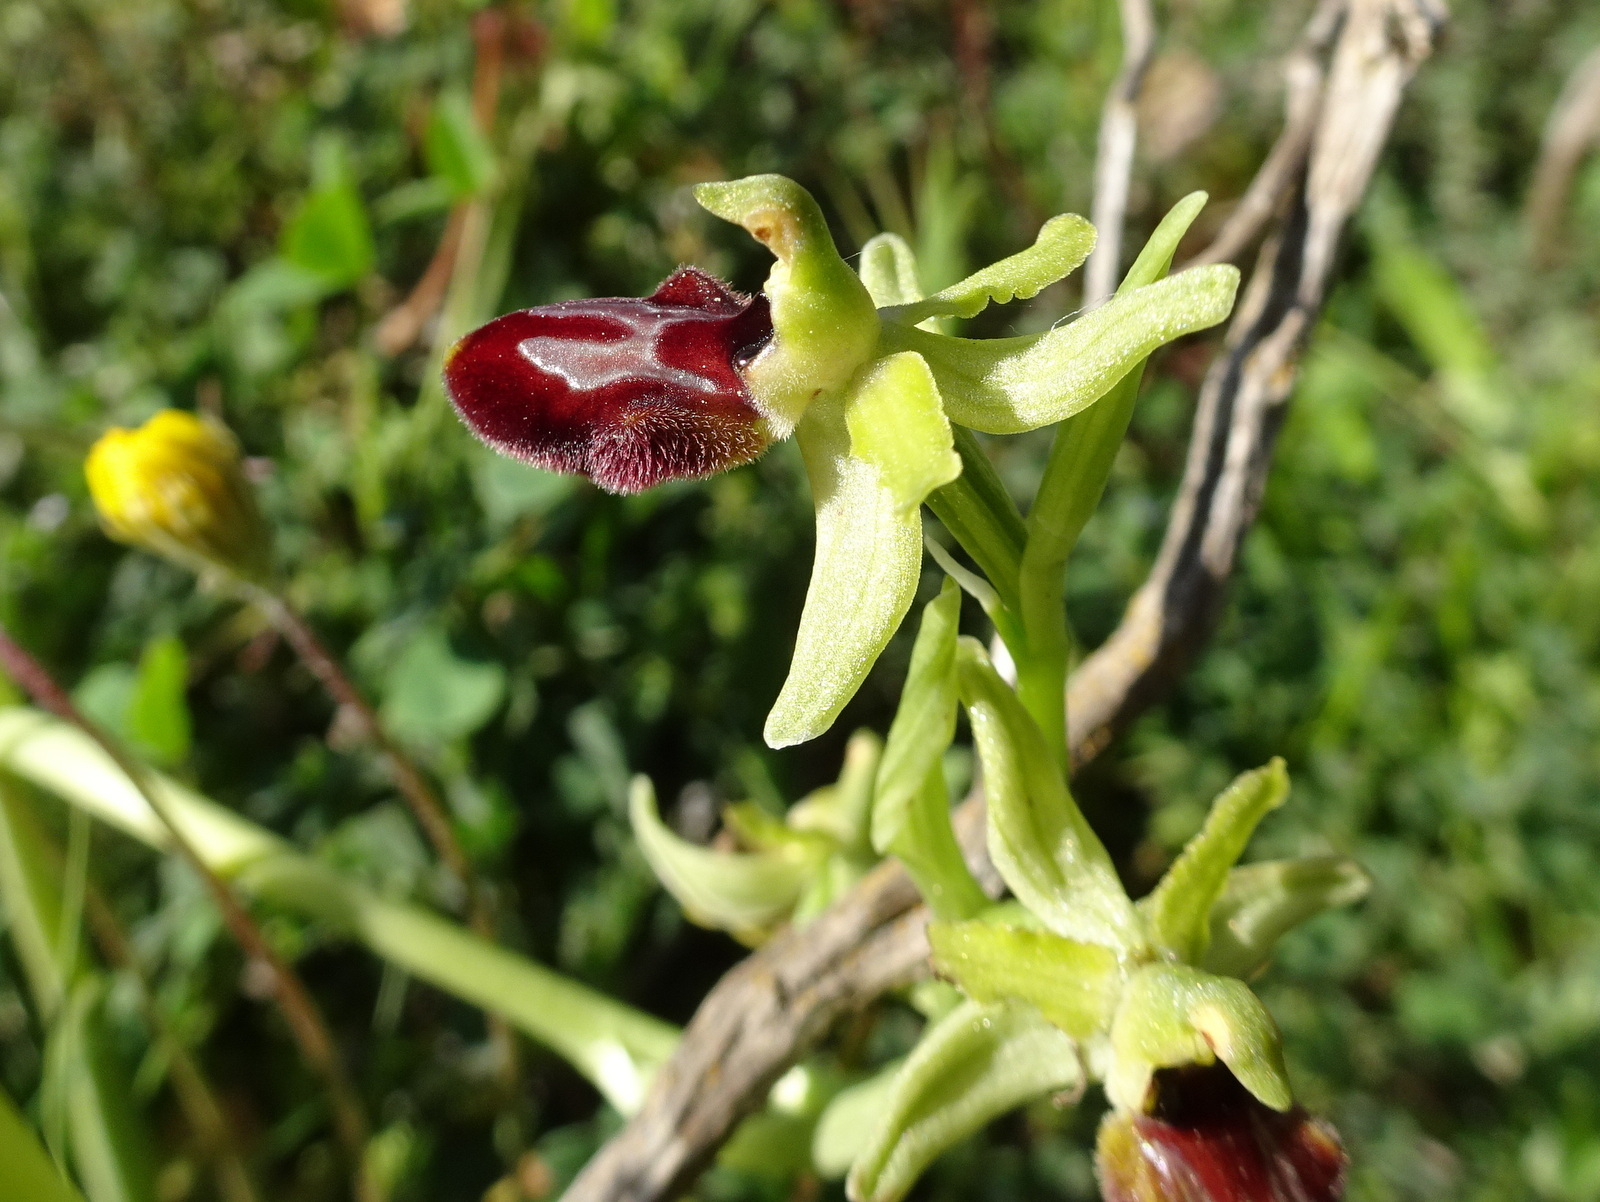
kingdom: Plantae
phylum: Tracheophyta
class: Liliopsida
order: Asparagales
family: Orchidaceae
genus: Ophrys
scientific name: Ophrys sphegodes
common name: Early spider-orchid
